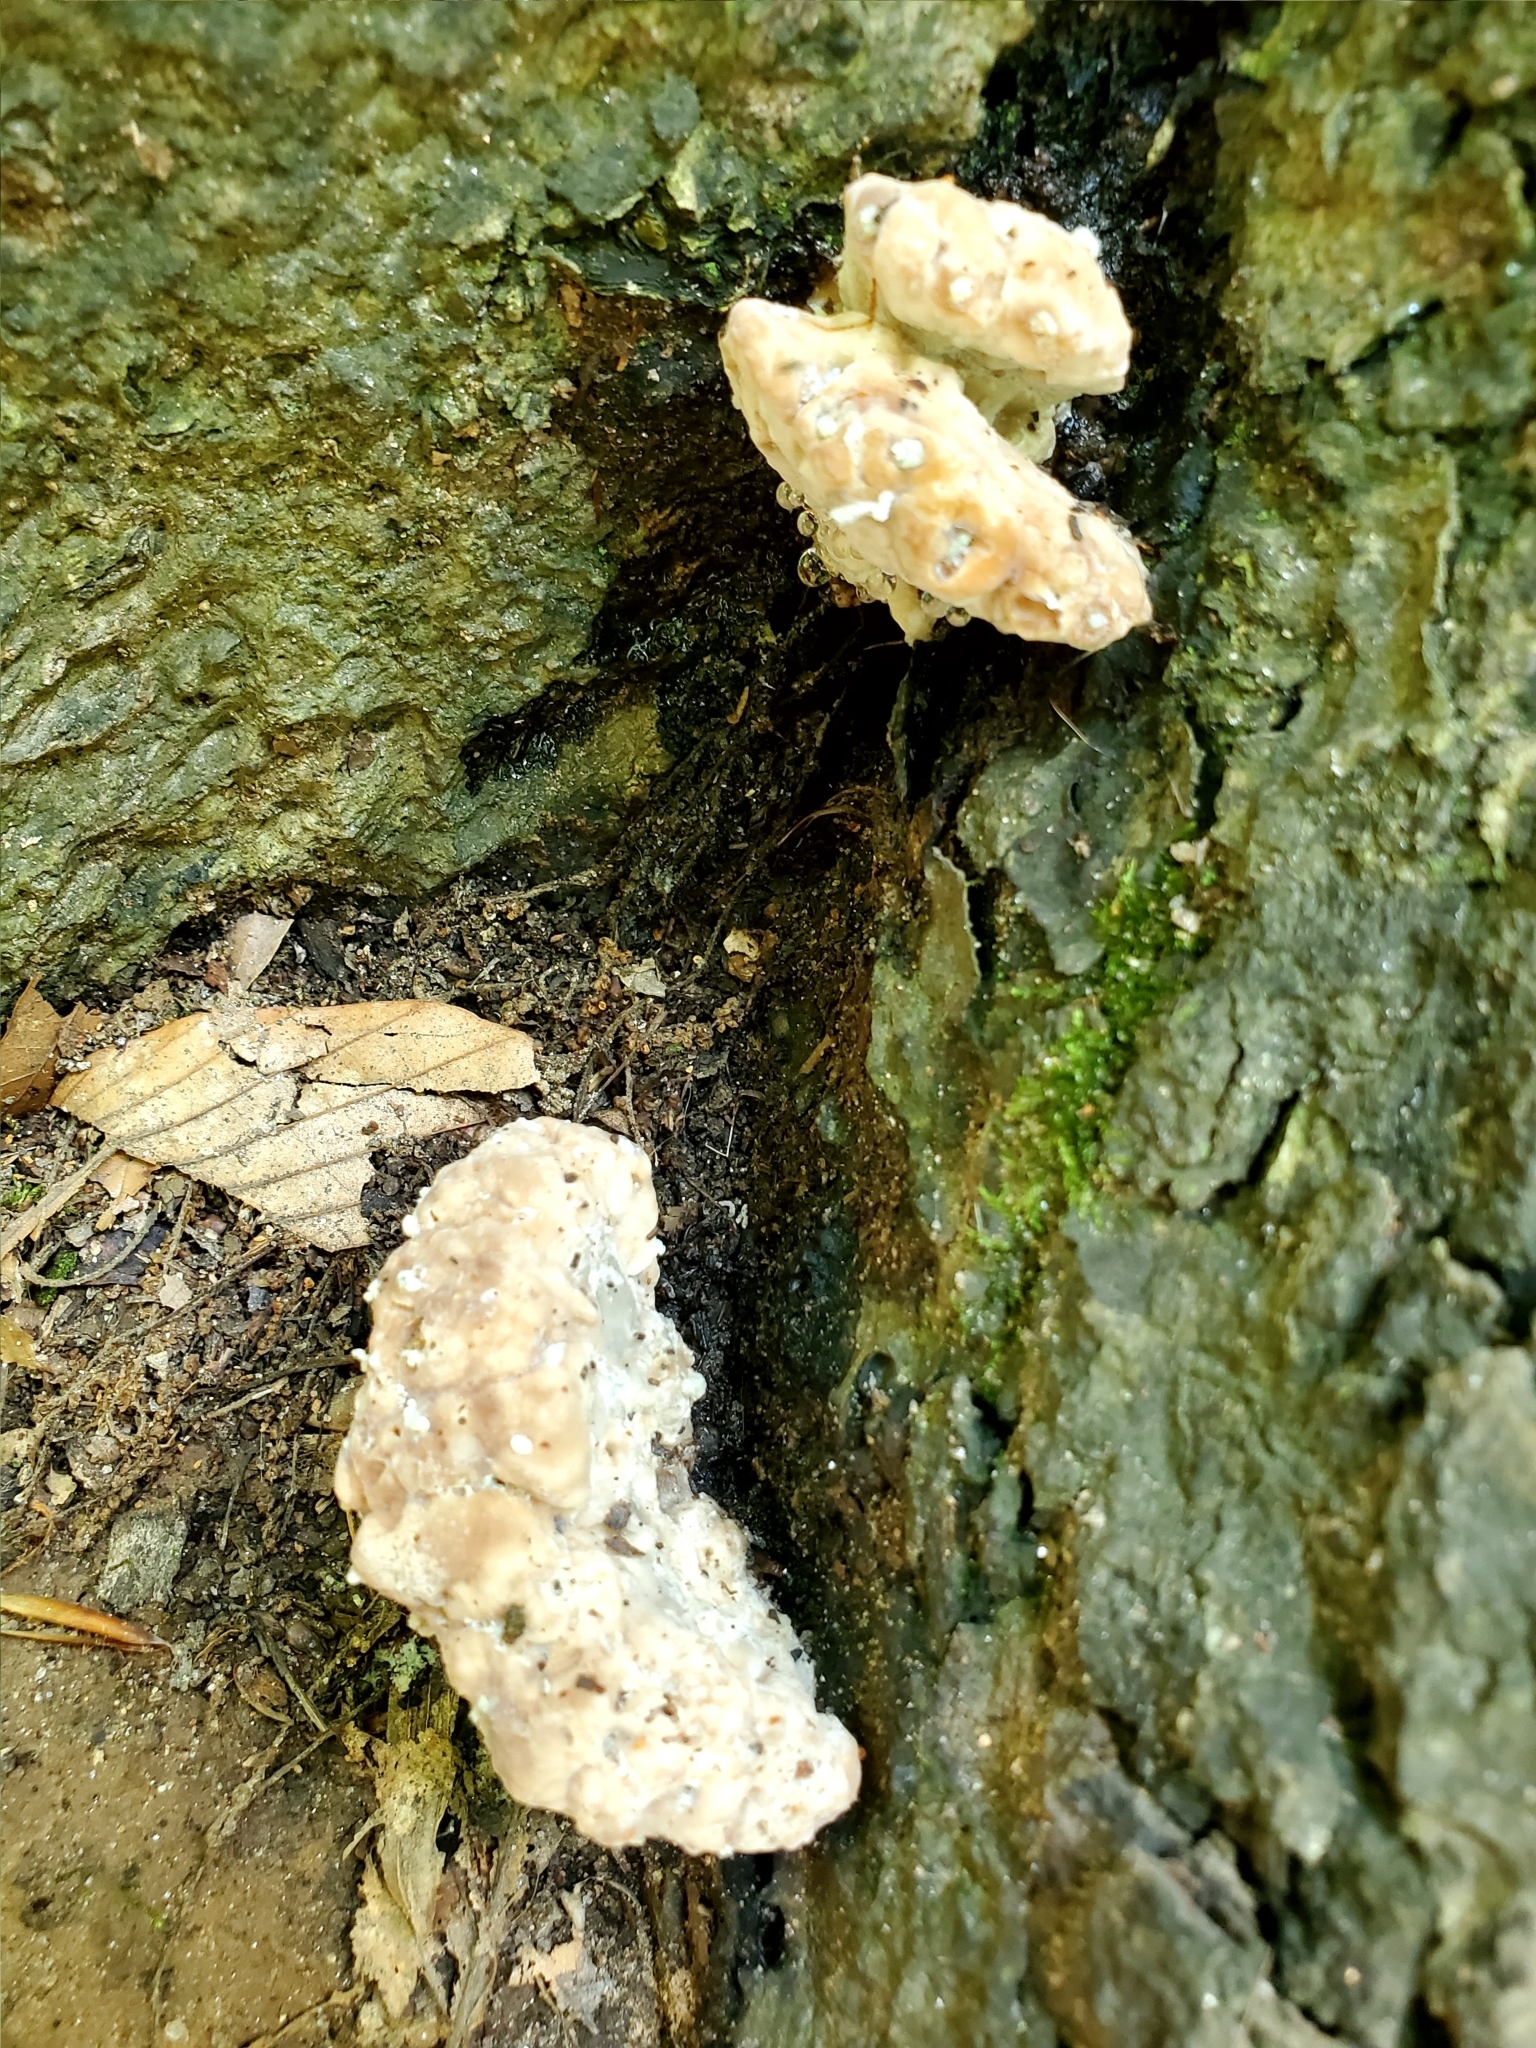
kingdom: Fungi
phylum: Basidiomycota
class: Agaricomycetes
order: Polyporales
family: Fomitopsidaceae
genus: Niveoporofomes
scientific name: Niveoporofomes spraguei
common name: Green cheese polypore
